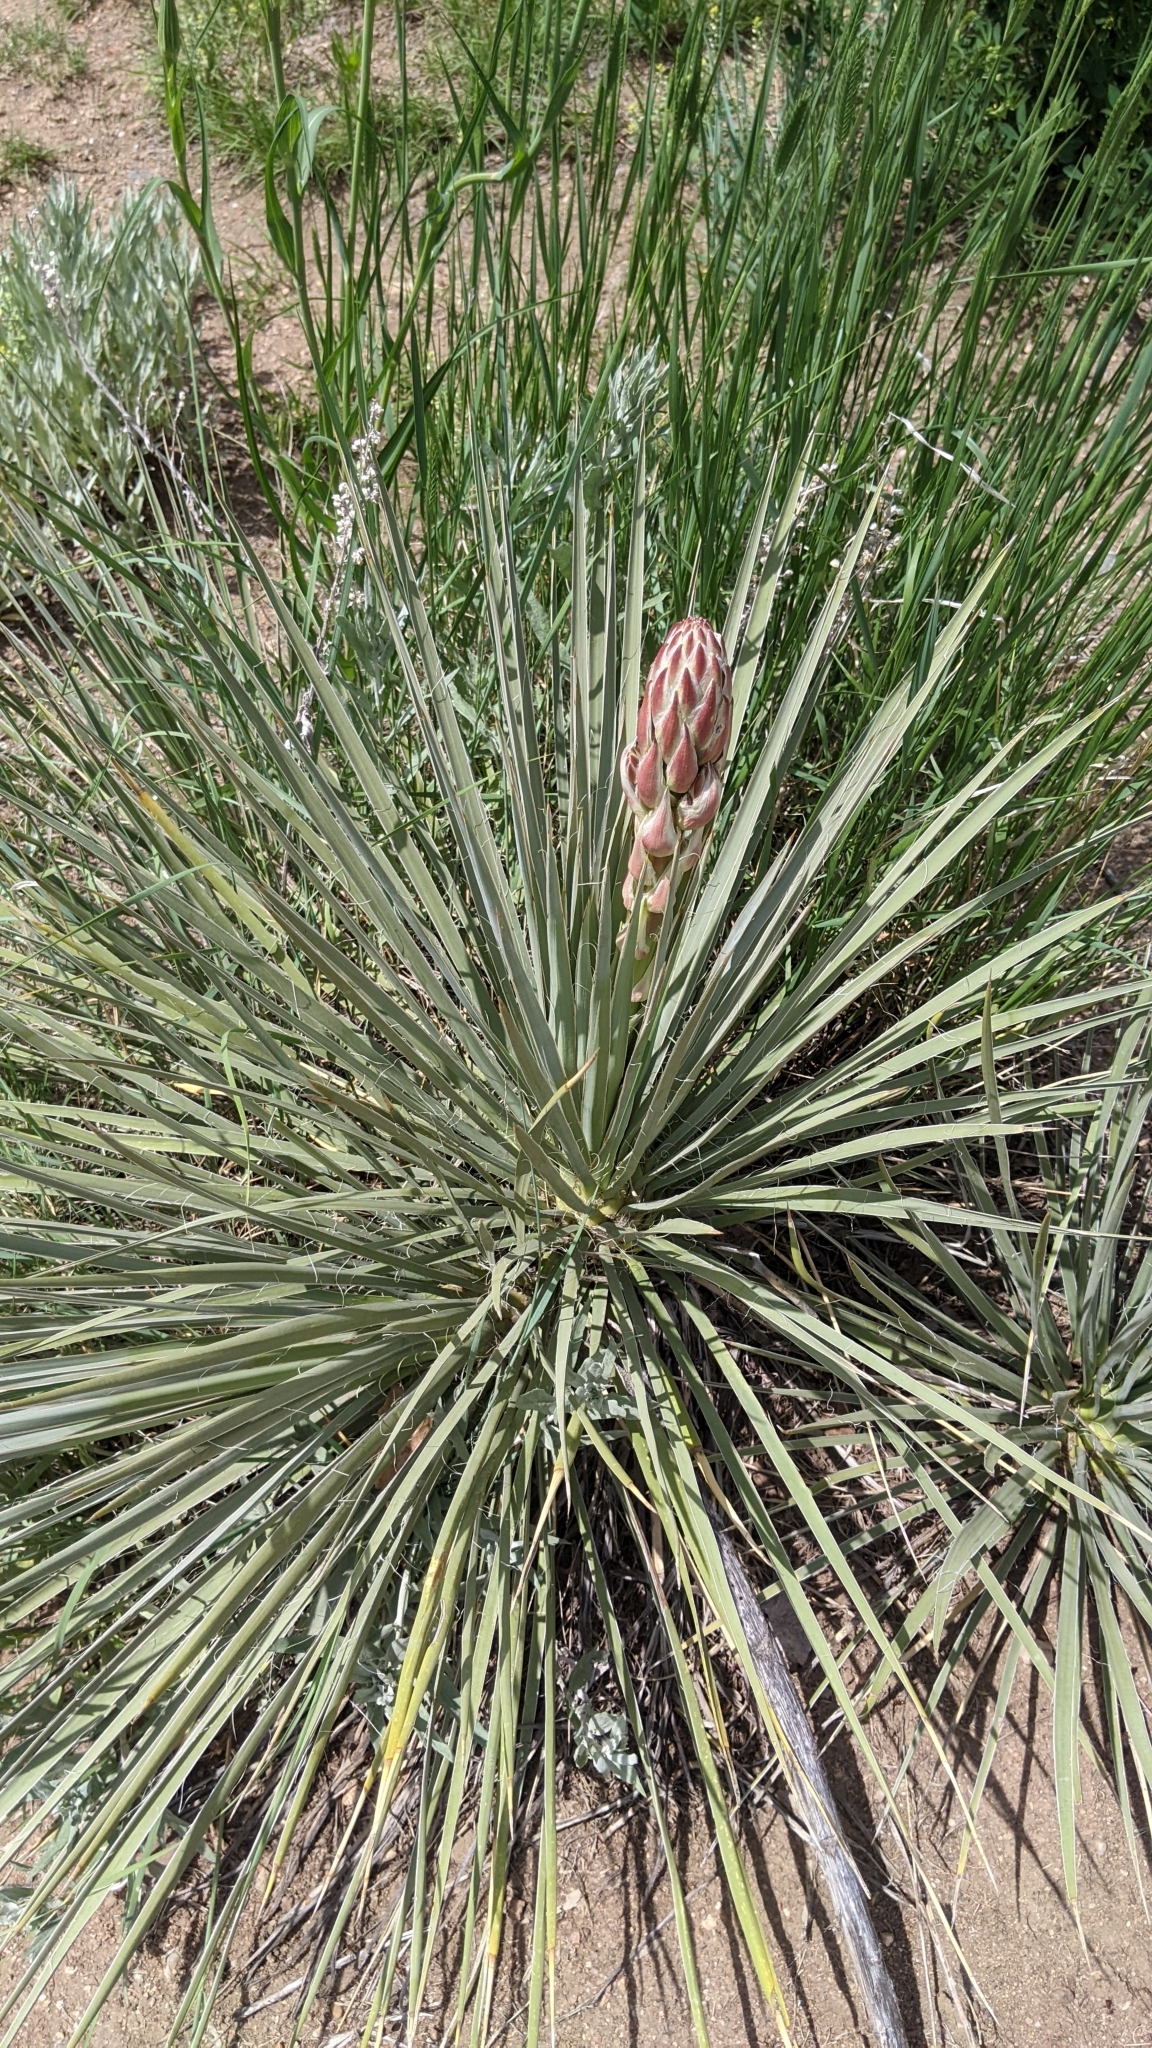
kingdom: Plantae
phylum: Tracheophyta
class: Liliopsida
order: Asparagales
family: Asparagaceae
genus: Yucca
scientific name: Yucca glauca
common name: Great plains yucca
